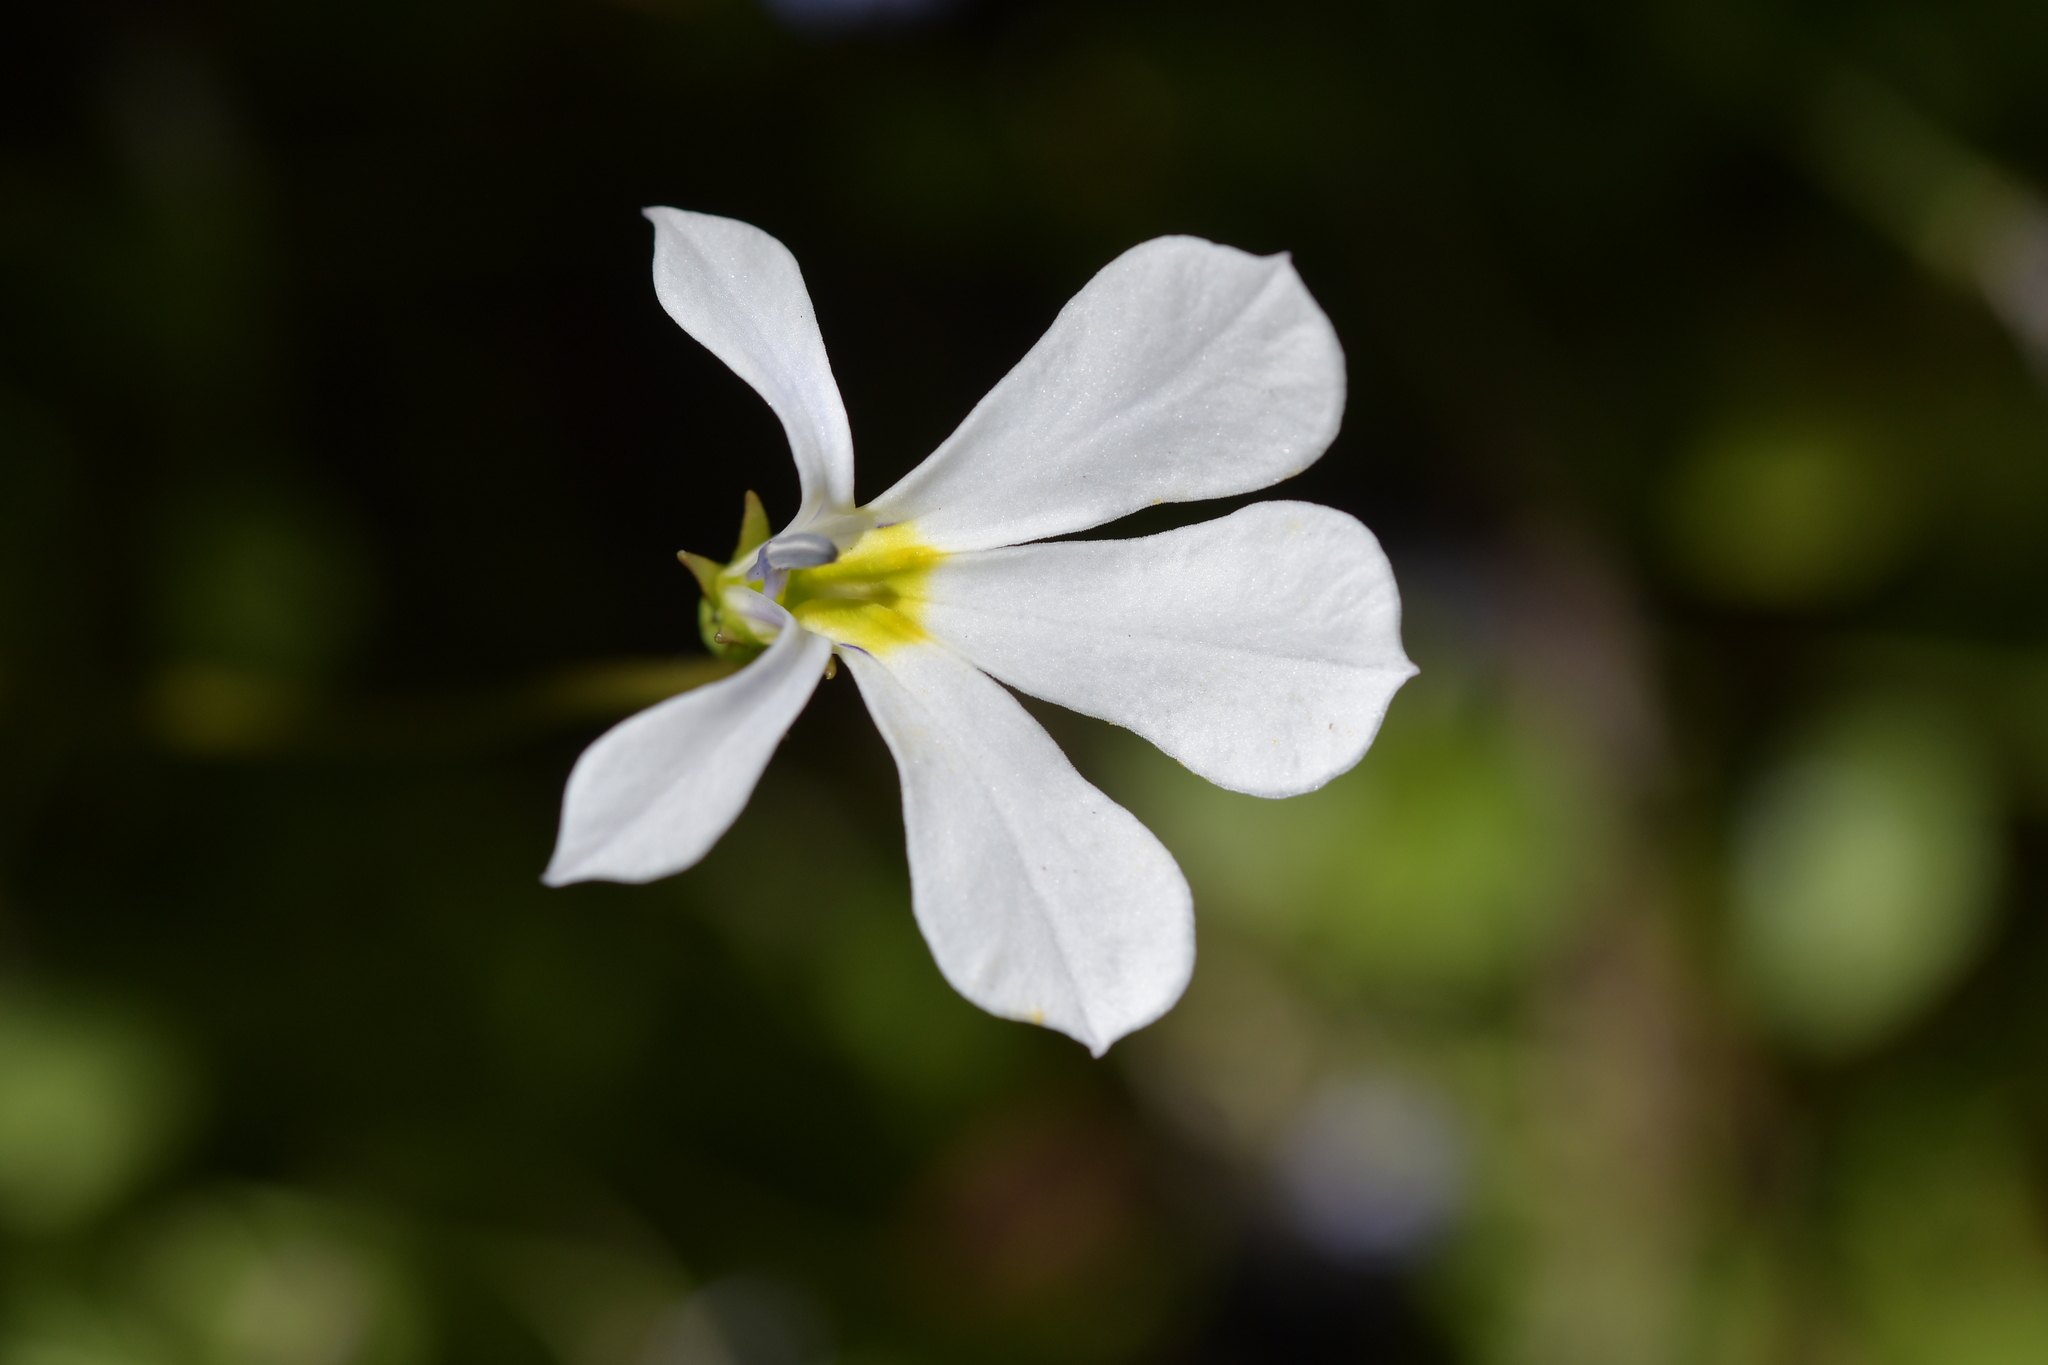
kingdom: Plantae
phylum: Tracheophyta
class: Magnoliopsida
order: Asterales
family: Campanulaceae
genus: Lobelia
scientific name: Lobelia angulata
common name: Lawn lobelia
